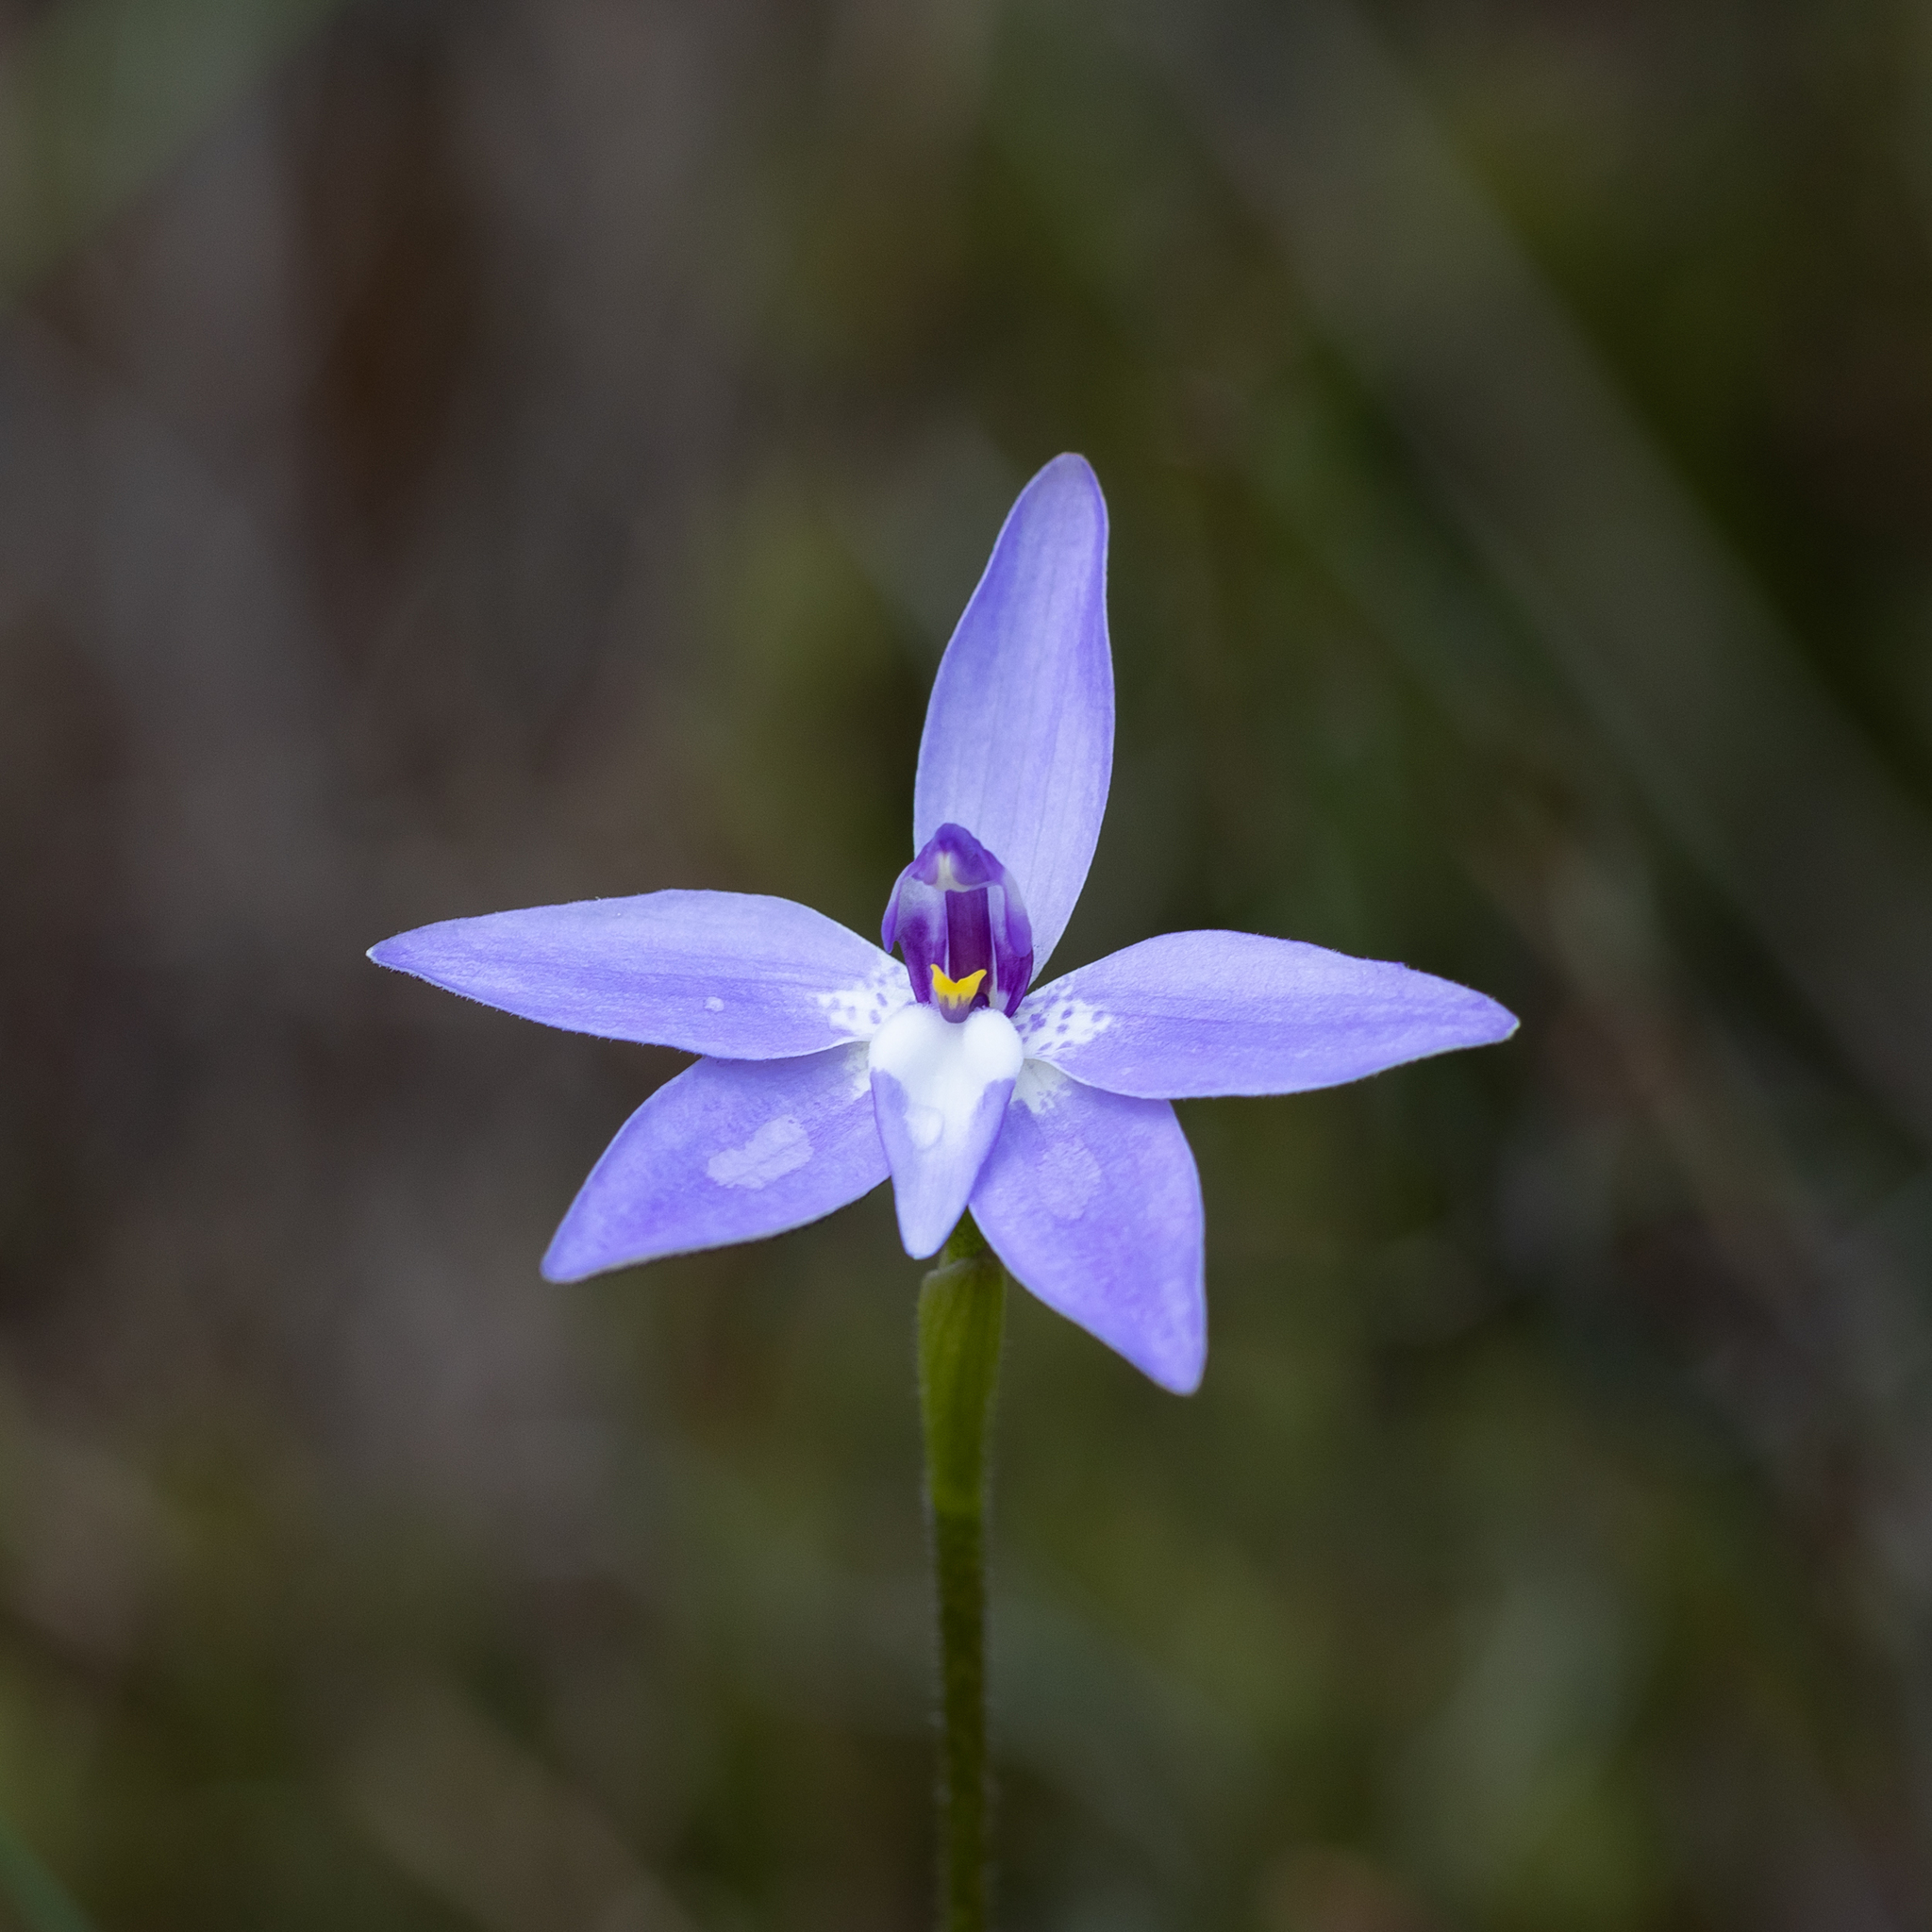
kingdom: Plantae
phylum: Tracheophyta
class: Liliopsida
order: Asparagales
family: Orchidaceae
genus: Caladenia
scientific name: Caladenia major
